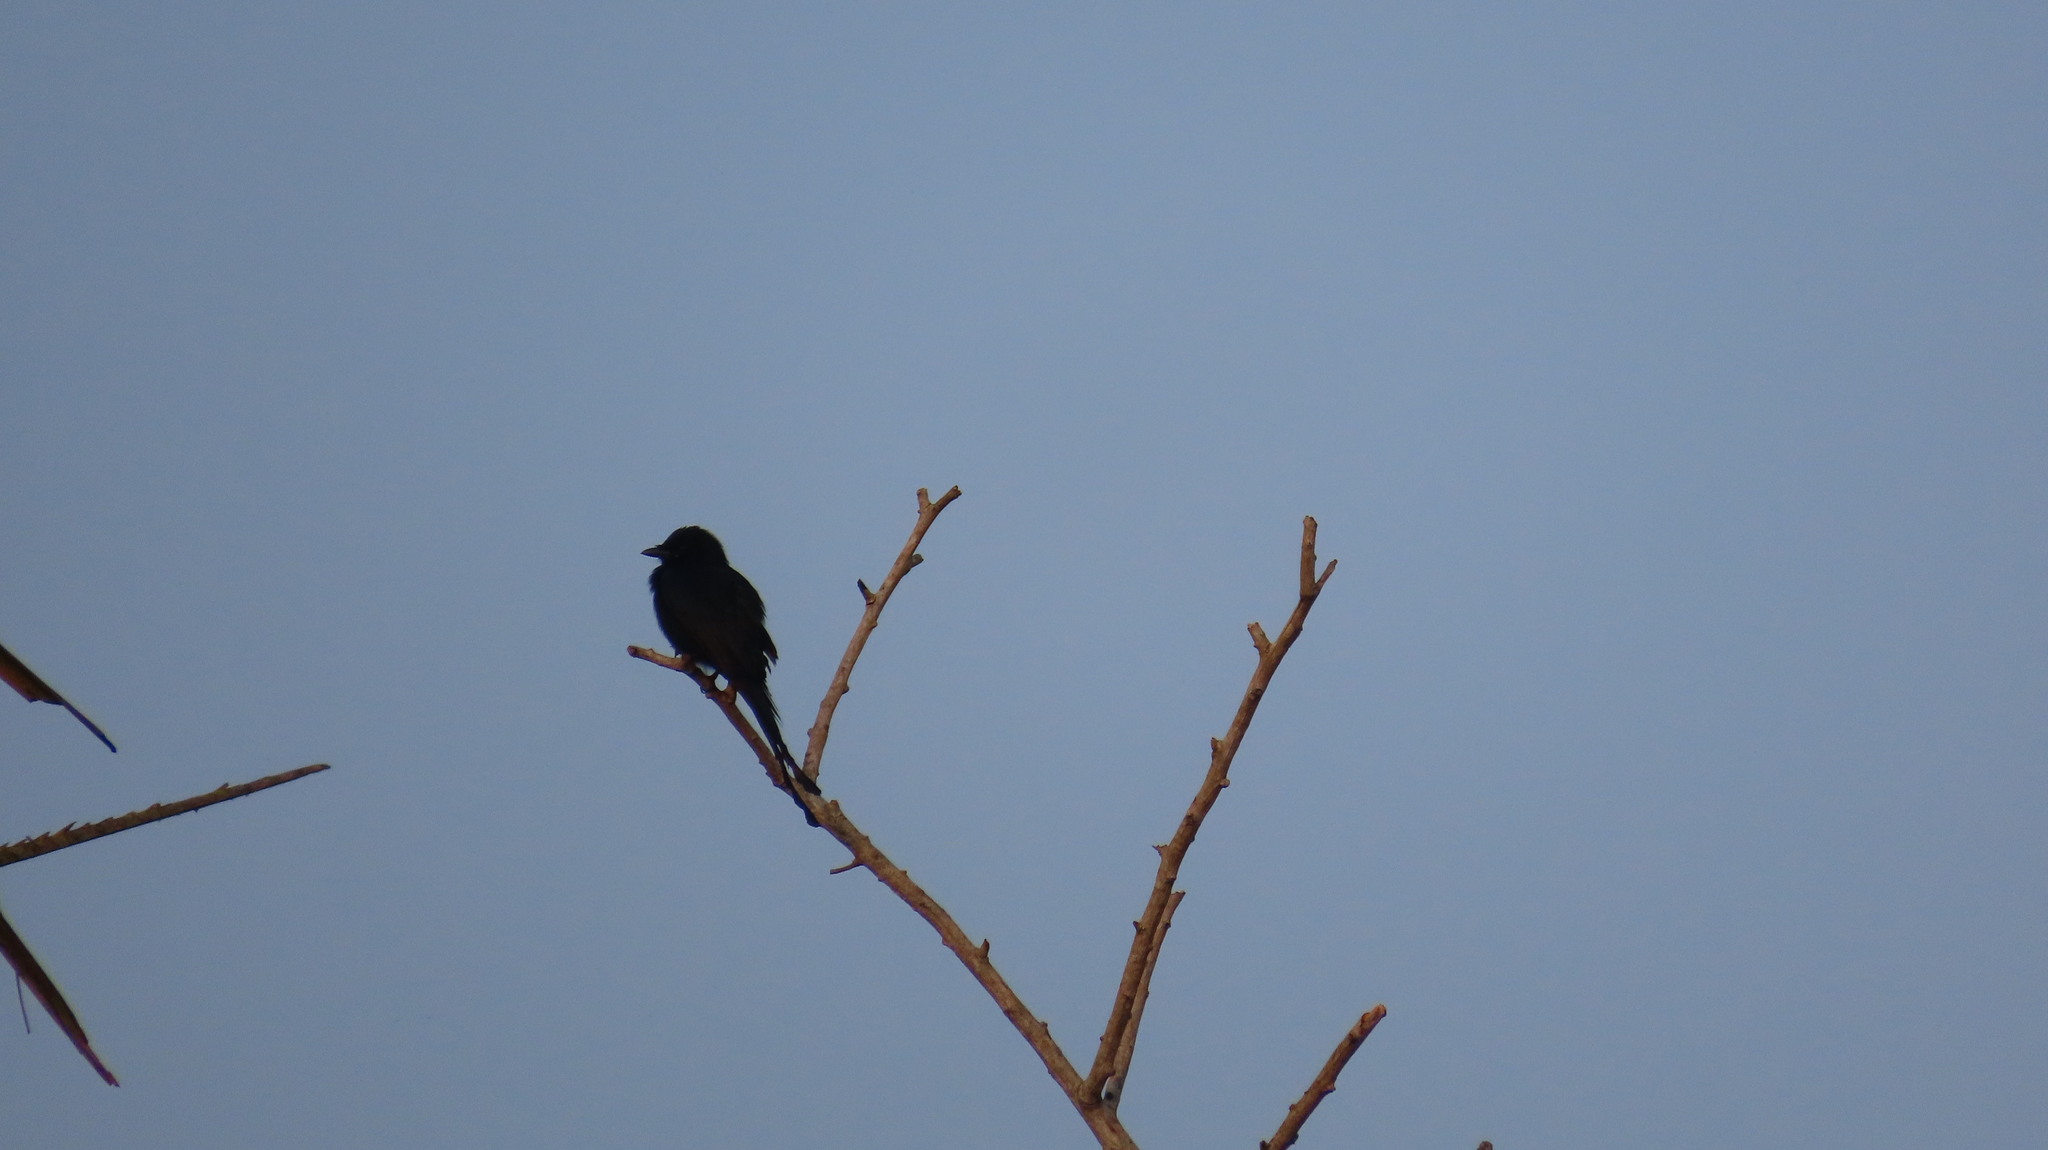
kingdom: Animalia
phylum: Chordata
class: Aves
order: Passeriformes
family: Dicruridae
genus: Dicrurus
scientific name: Dicrurus macrocercus
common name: Black drongo
